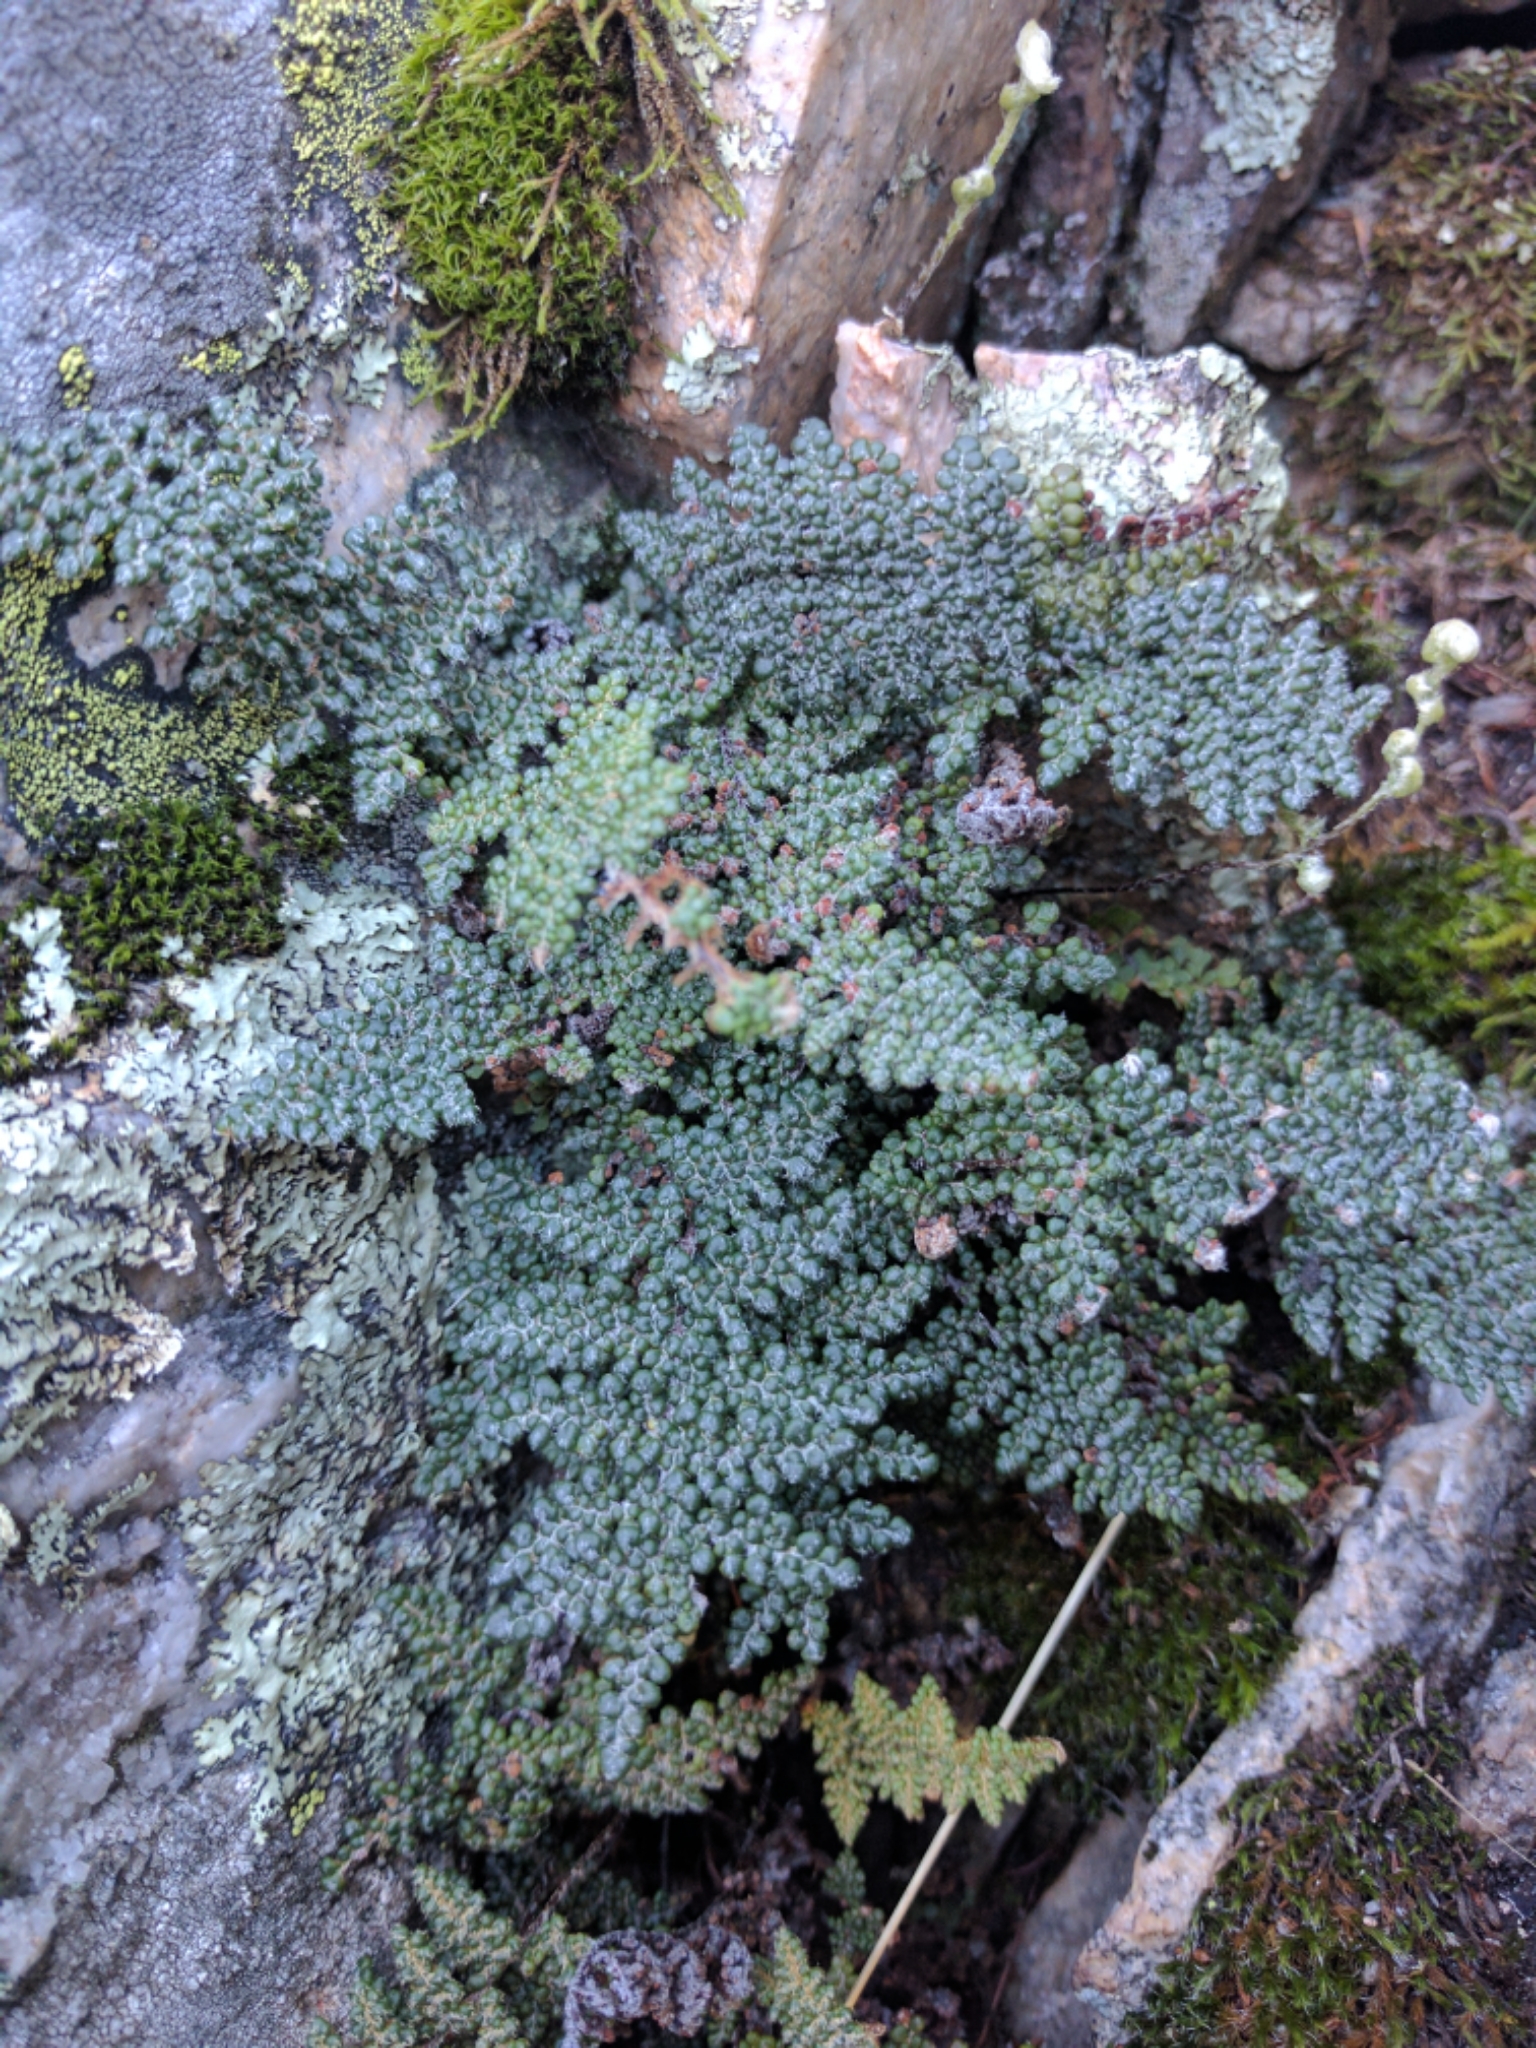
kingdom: Plantae
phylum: Tracheophyta
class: Polypodiopsida
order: Polypodiales
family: Pteridaceae
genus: Myriopteris
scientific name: Myriopteris intertexta
